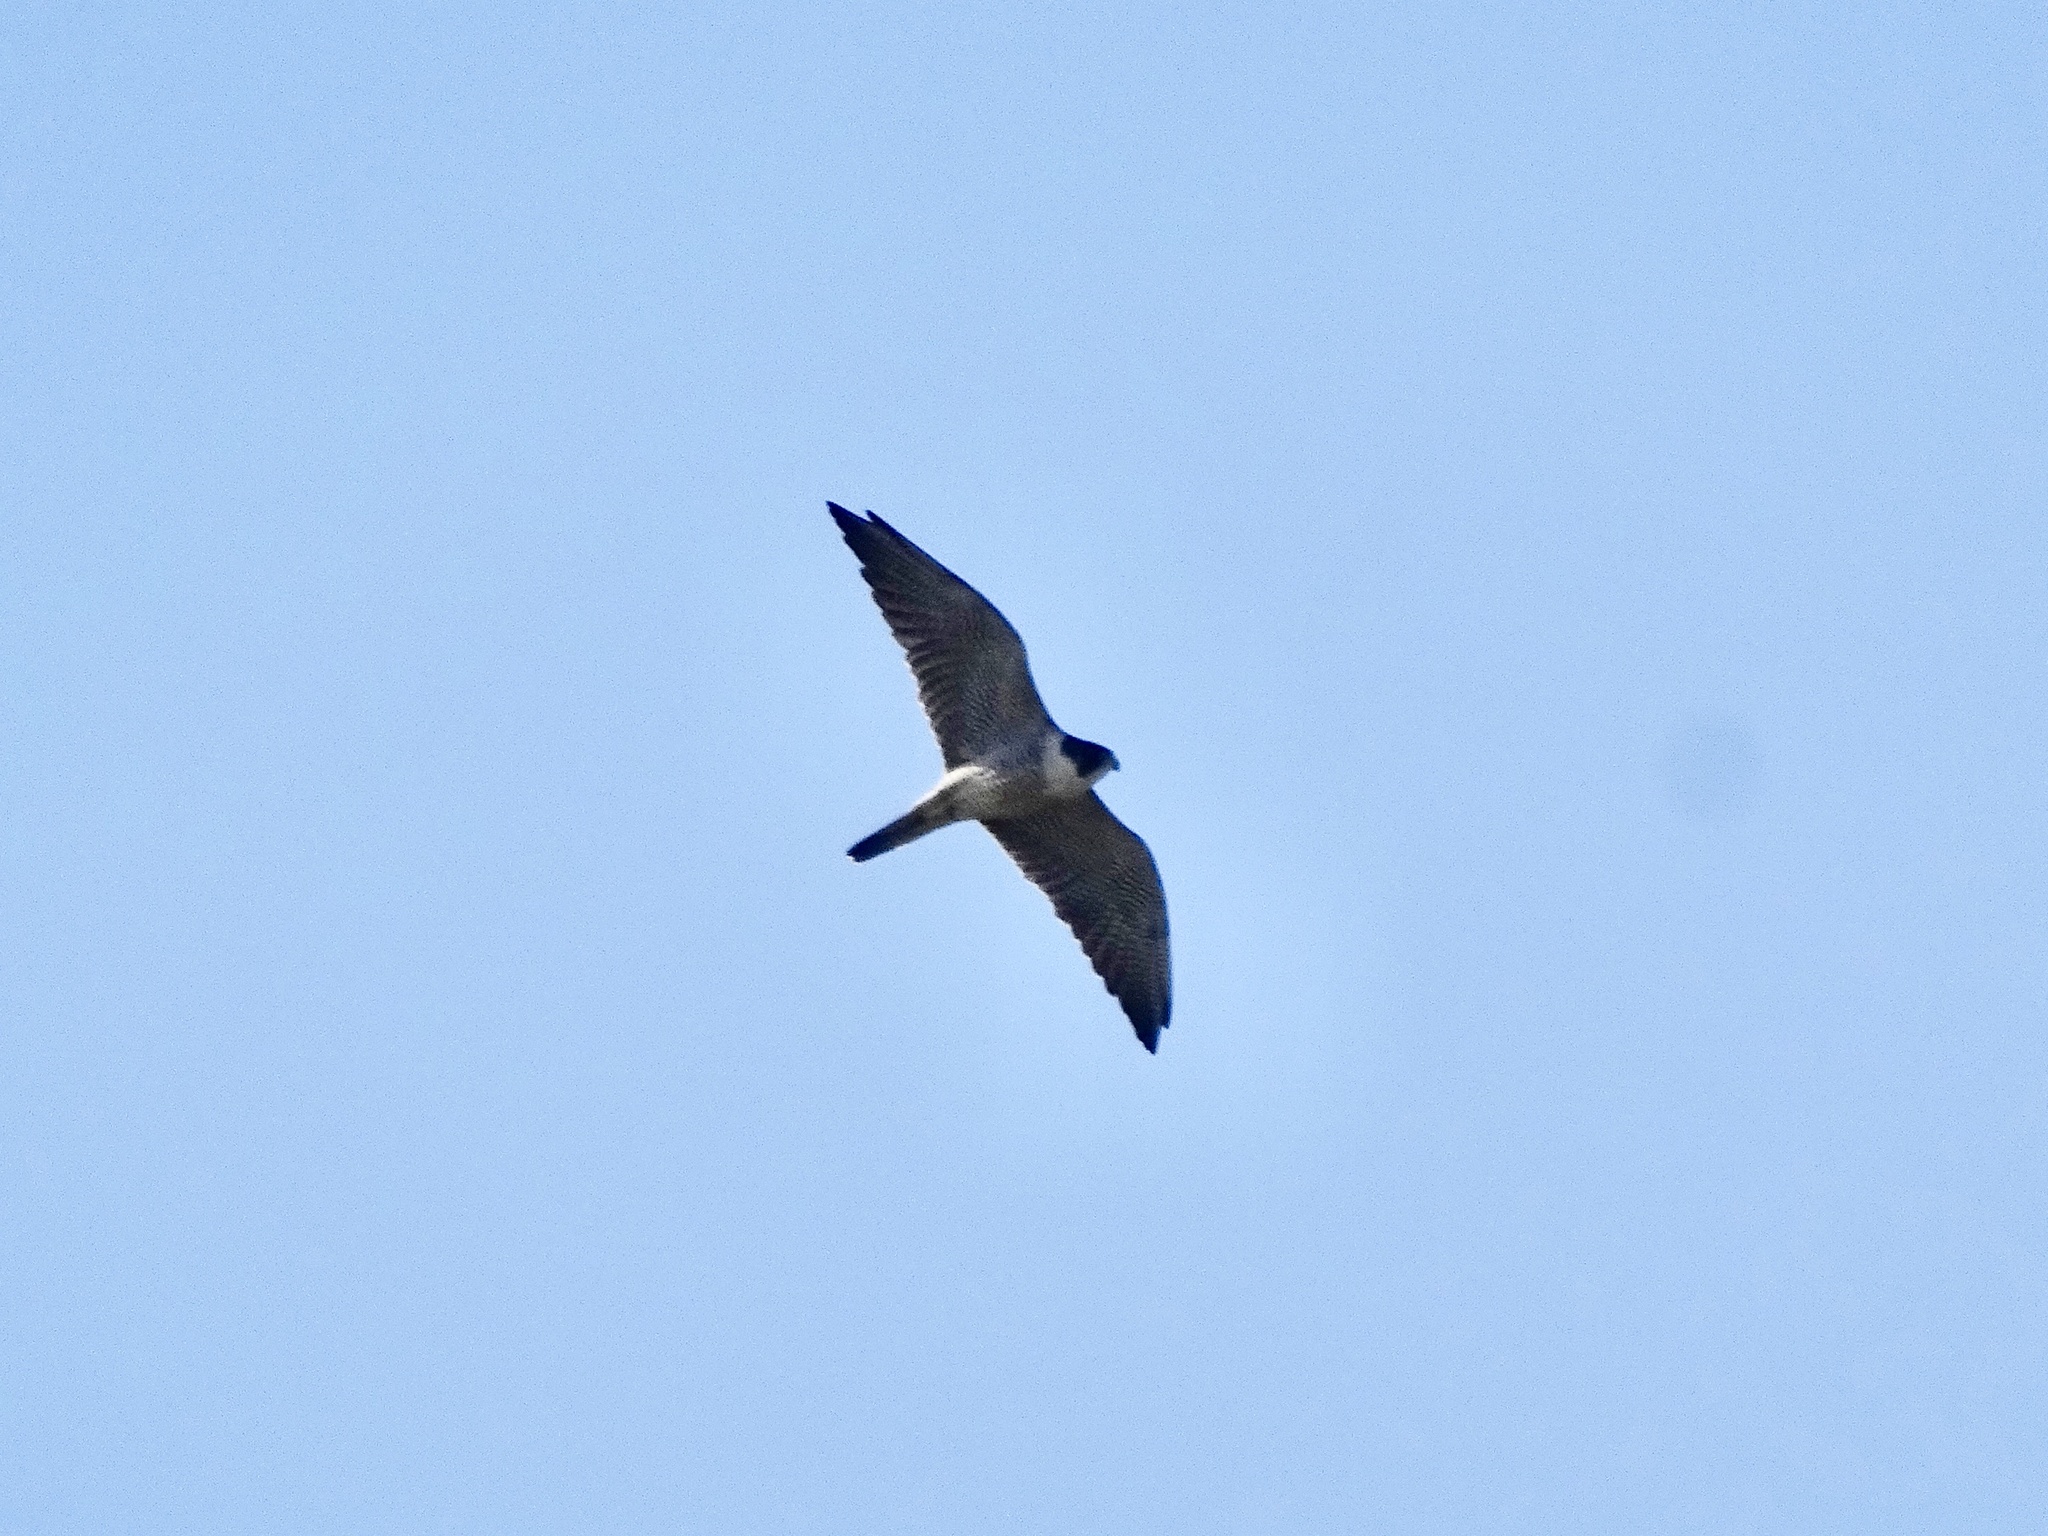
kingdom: Animalia
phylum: Chordata
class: Aves
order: Falconiformes
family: Falconidae
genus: Falco
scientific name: Falco peregrinus
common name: Peregrine falcon
